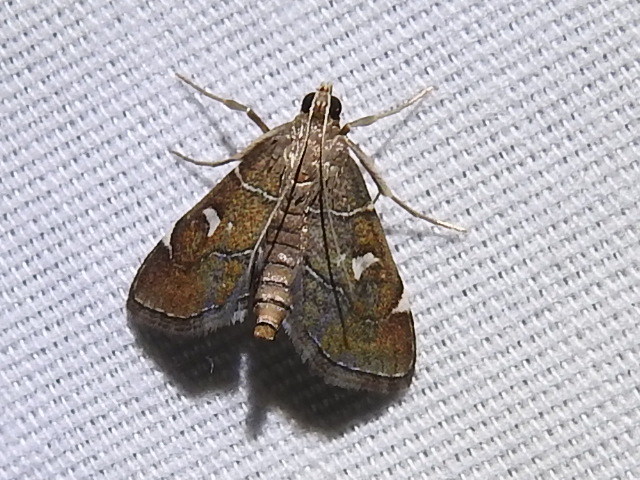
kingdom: Animalia
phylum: Arthropoda
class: Insecta
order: Lepidoptera
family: Crambidae
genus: Lamprosema
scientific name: Lamprosema victoriae
